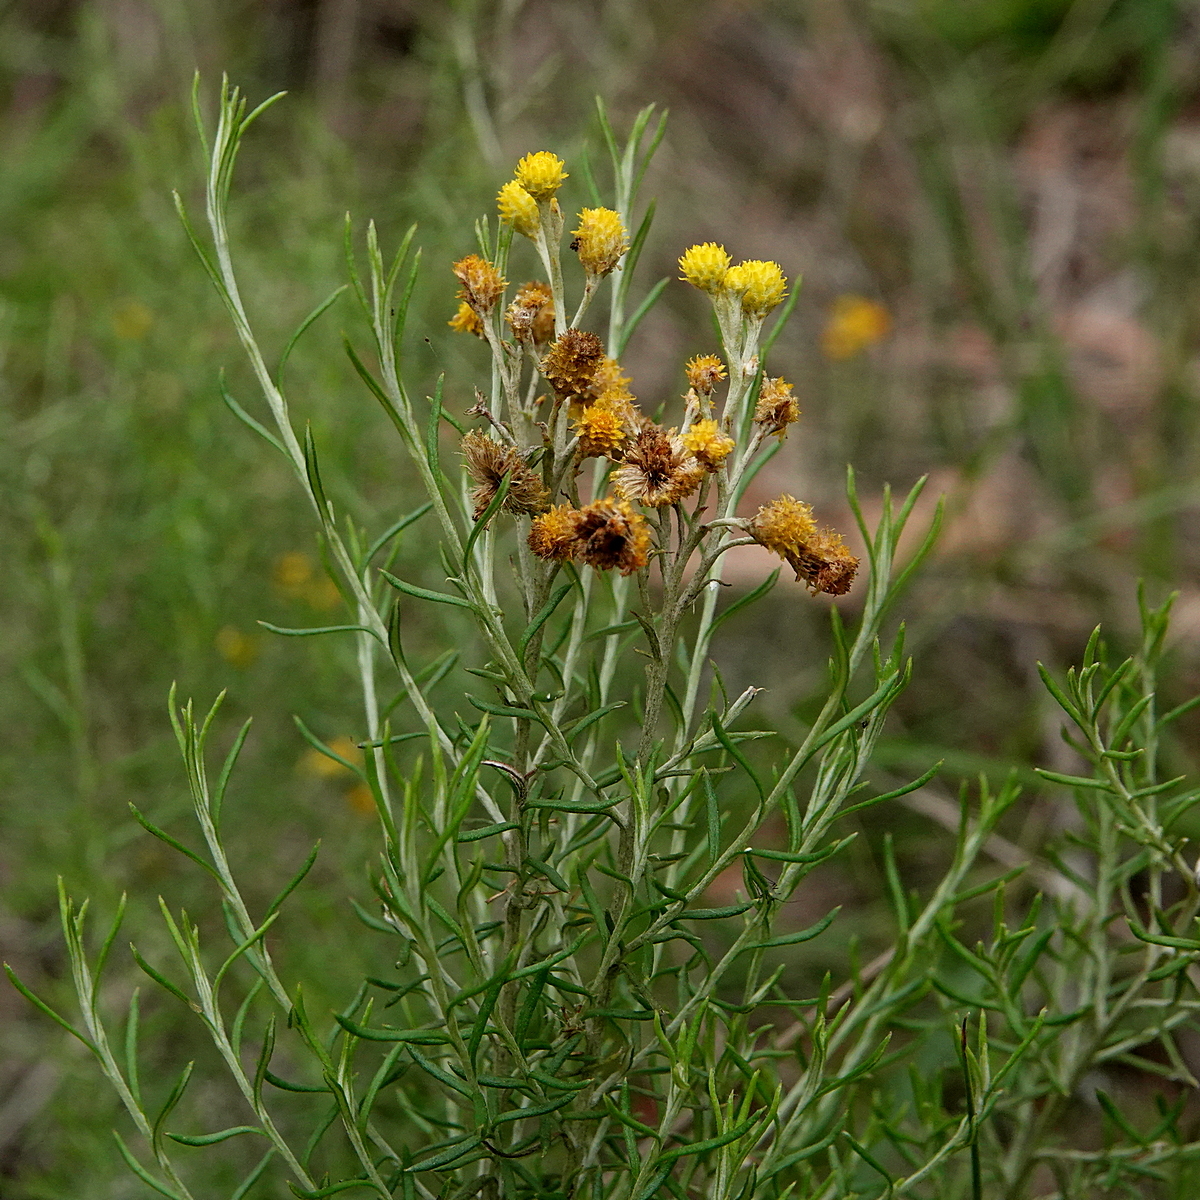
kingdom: Plantae
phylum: Tracheophyta
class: Magnoliopsida
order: Asterales
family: Asteraceae
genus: Chrysocephalum
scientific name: Chrysocephalum semipapposum
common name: Clustered everlasting
